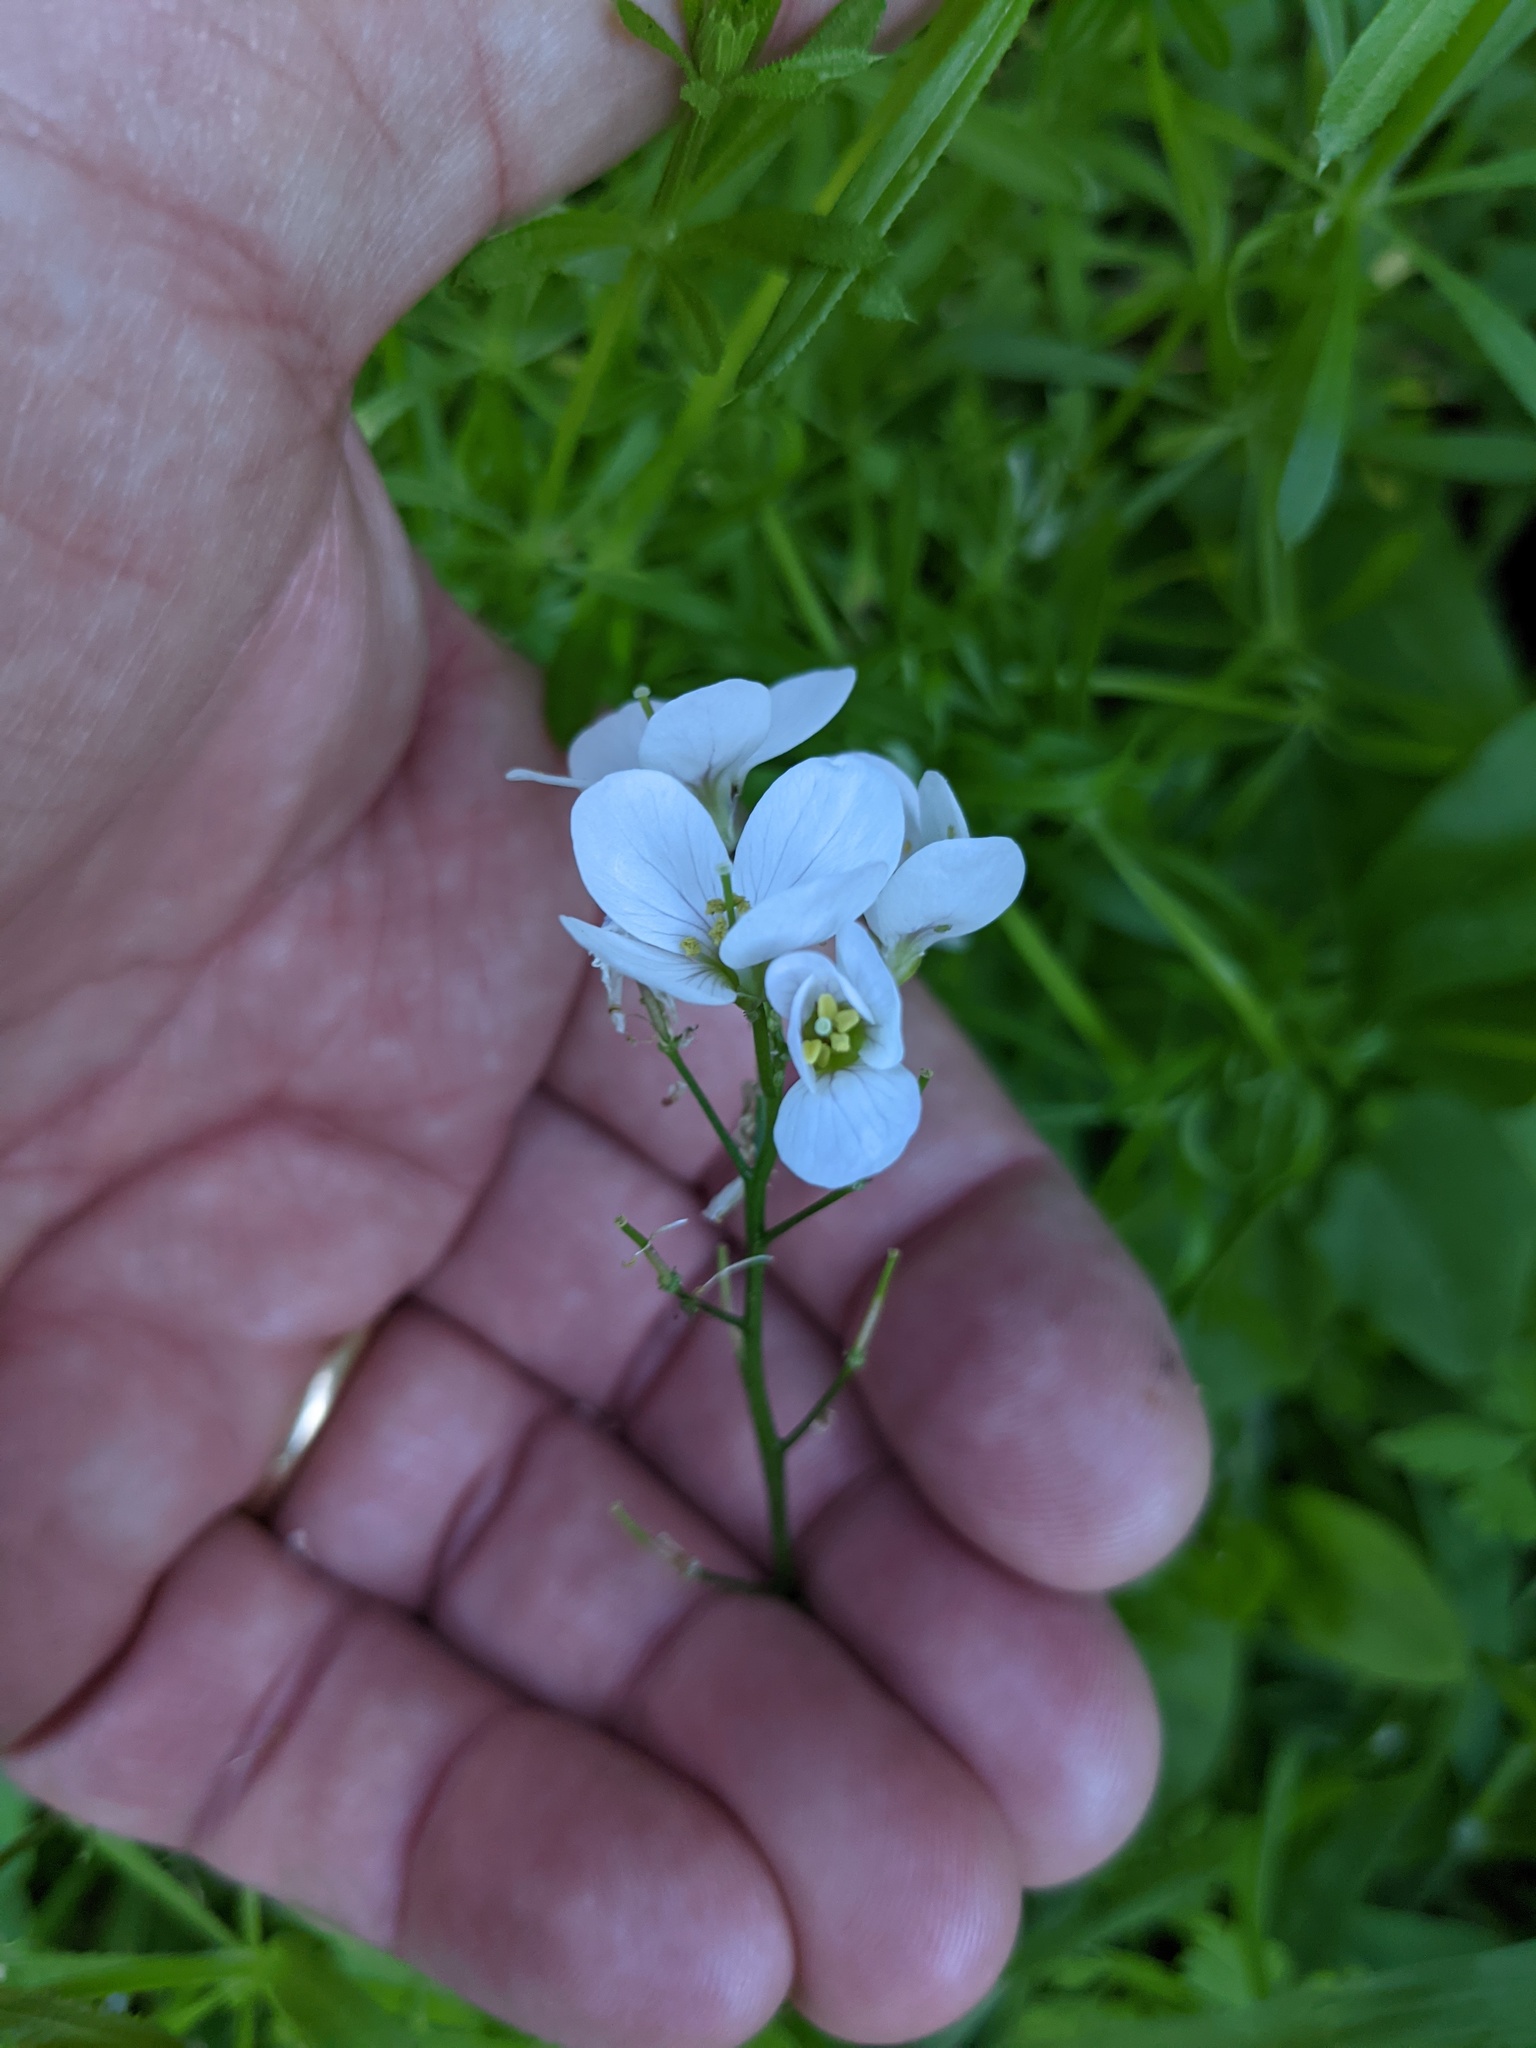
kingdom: Plantae
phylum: Tracheophyta
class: Magnoliopsida
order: Brassicales
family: Brassicaceae
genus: Cardamine
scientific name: Cardamine californica
